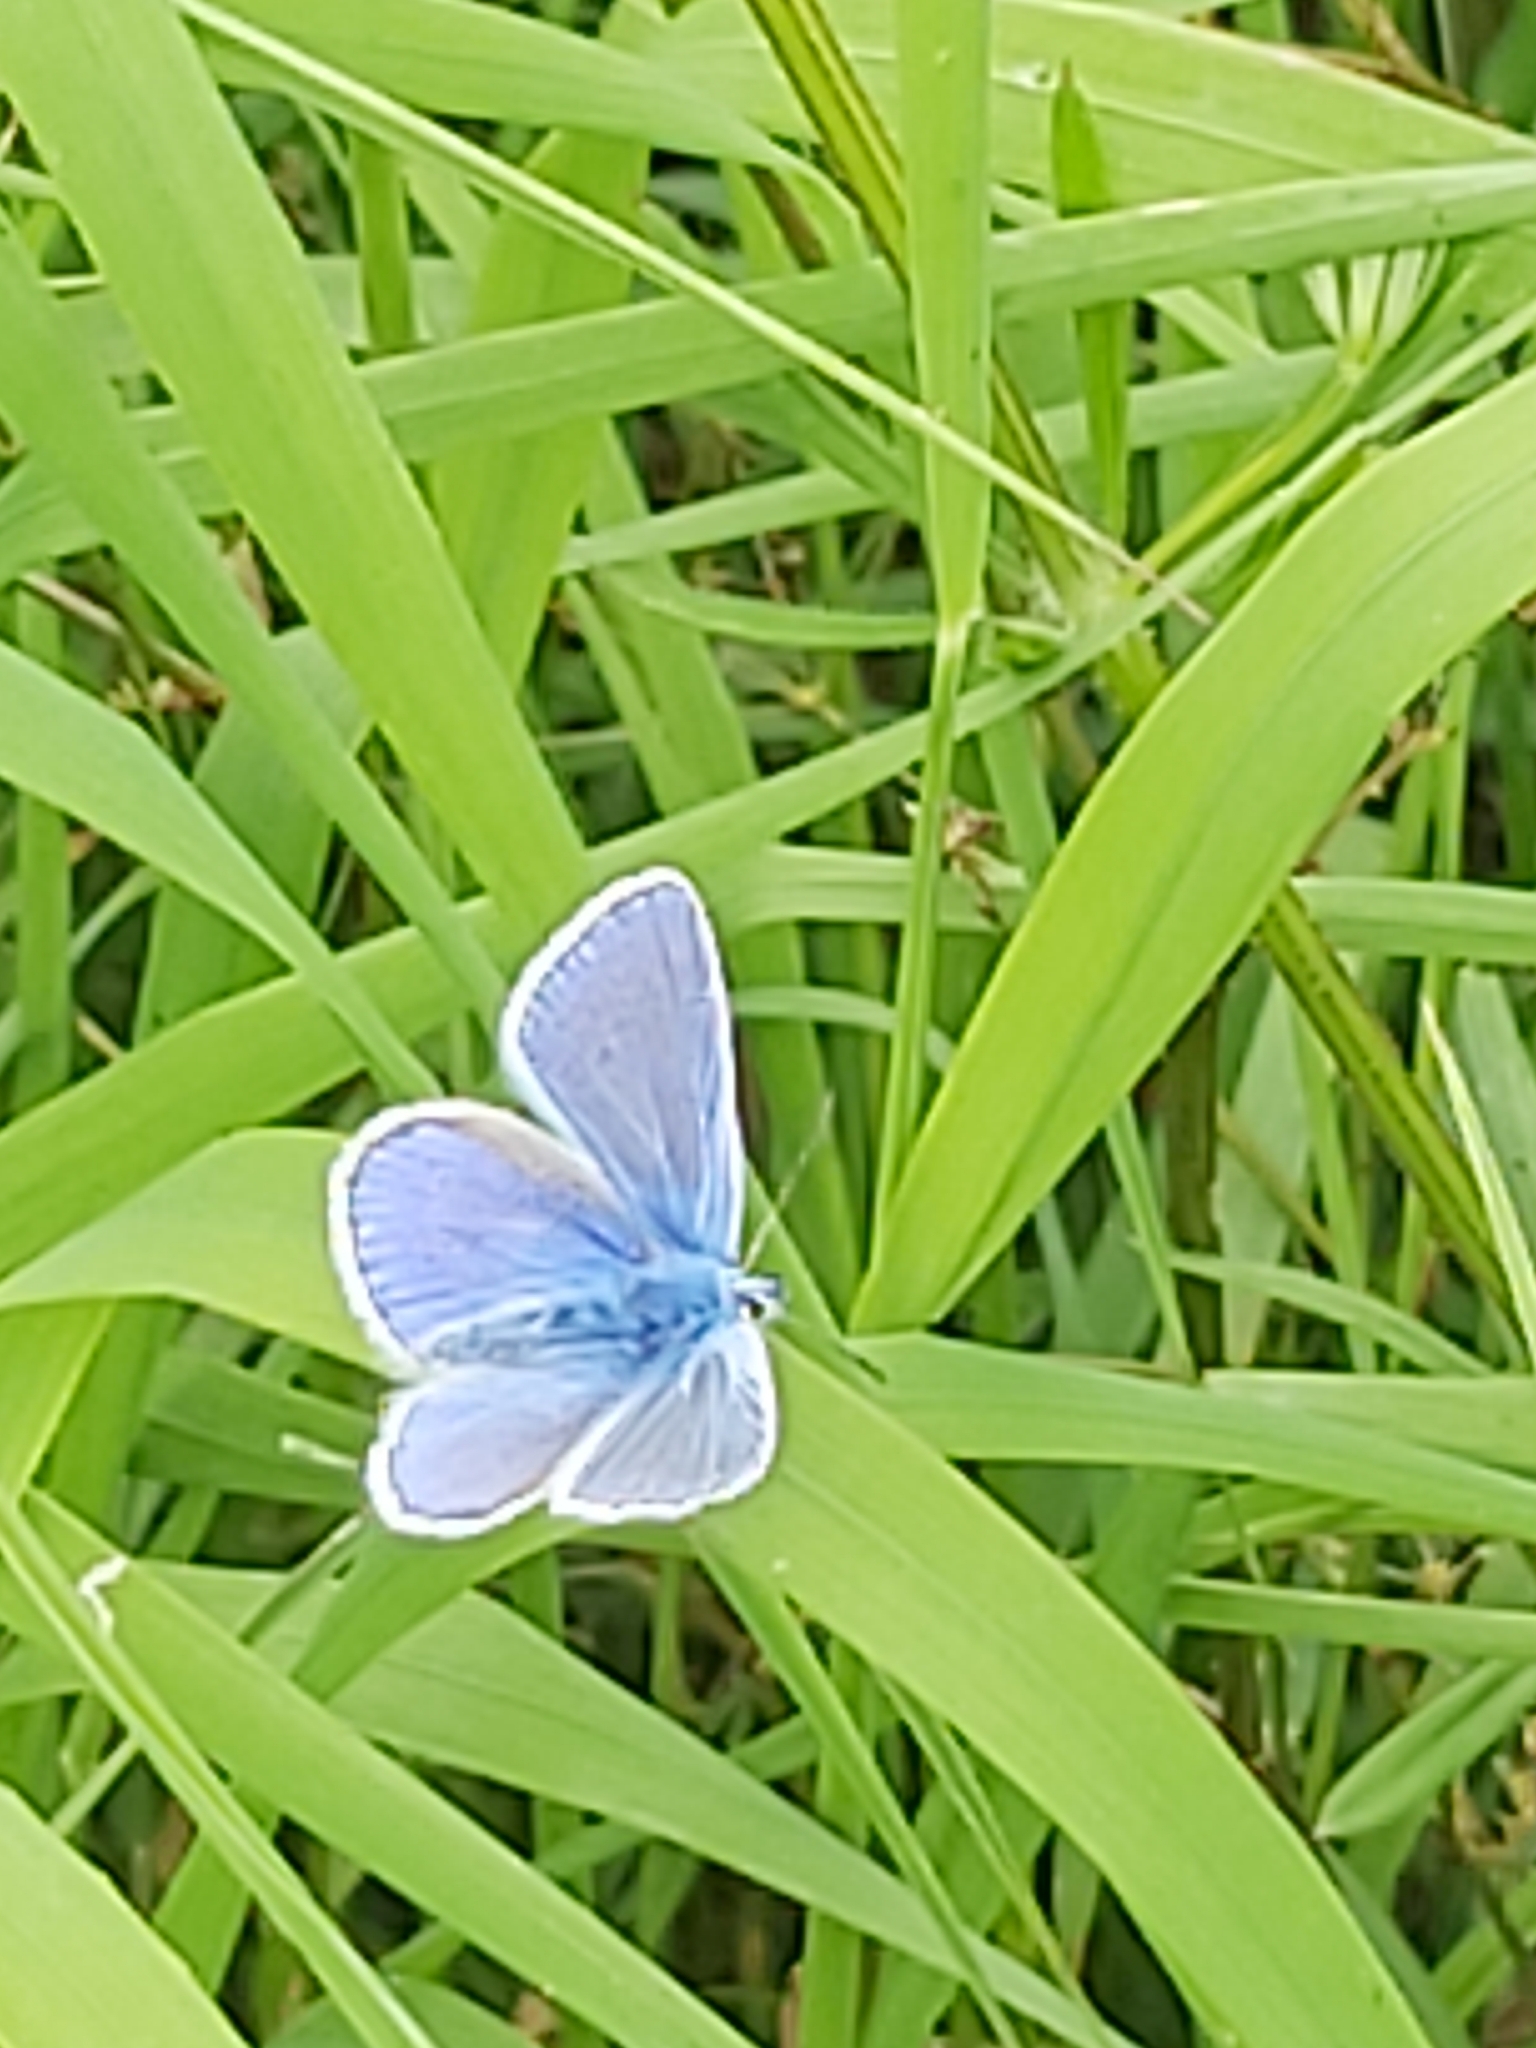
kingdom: Animalia
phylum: Arthropoda
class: Insecta
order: Lepidoptera
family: Lycaenidae
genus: Polyommatus
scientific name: Polyommatus icarus
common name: Common blue
